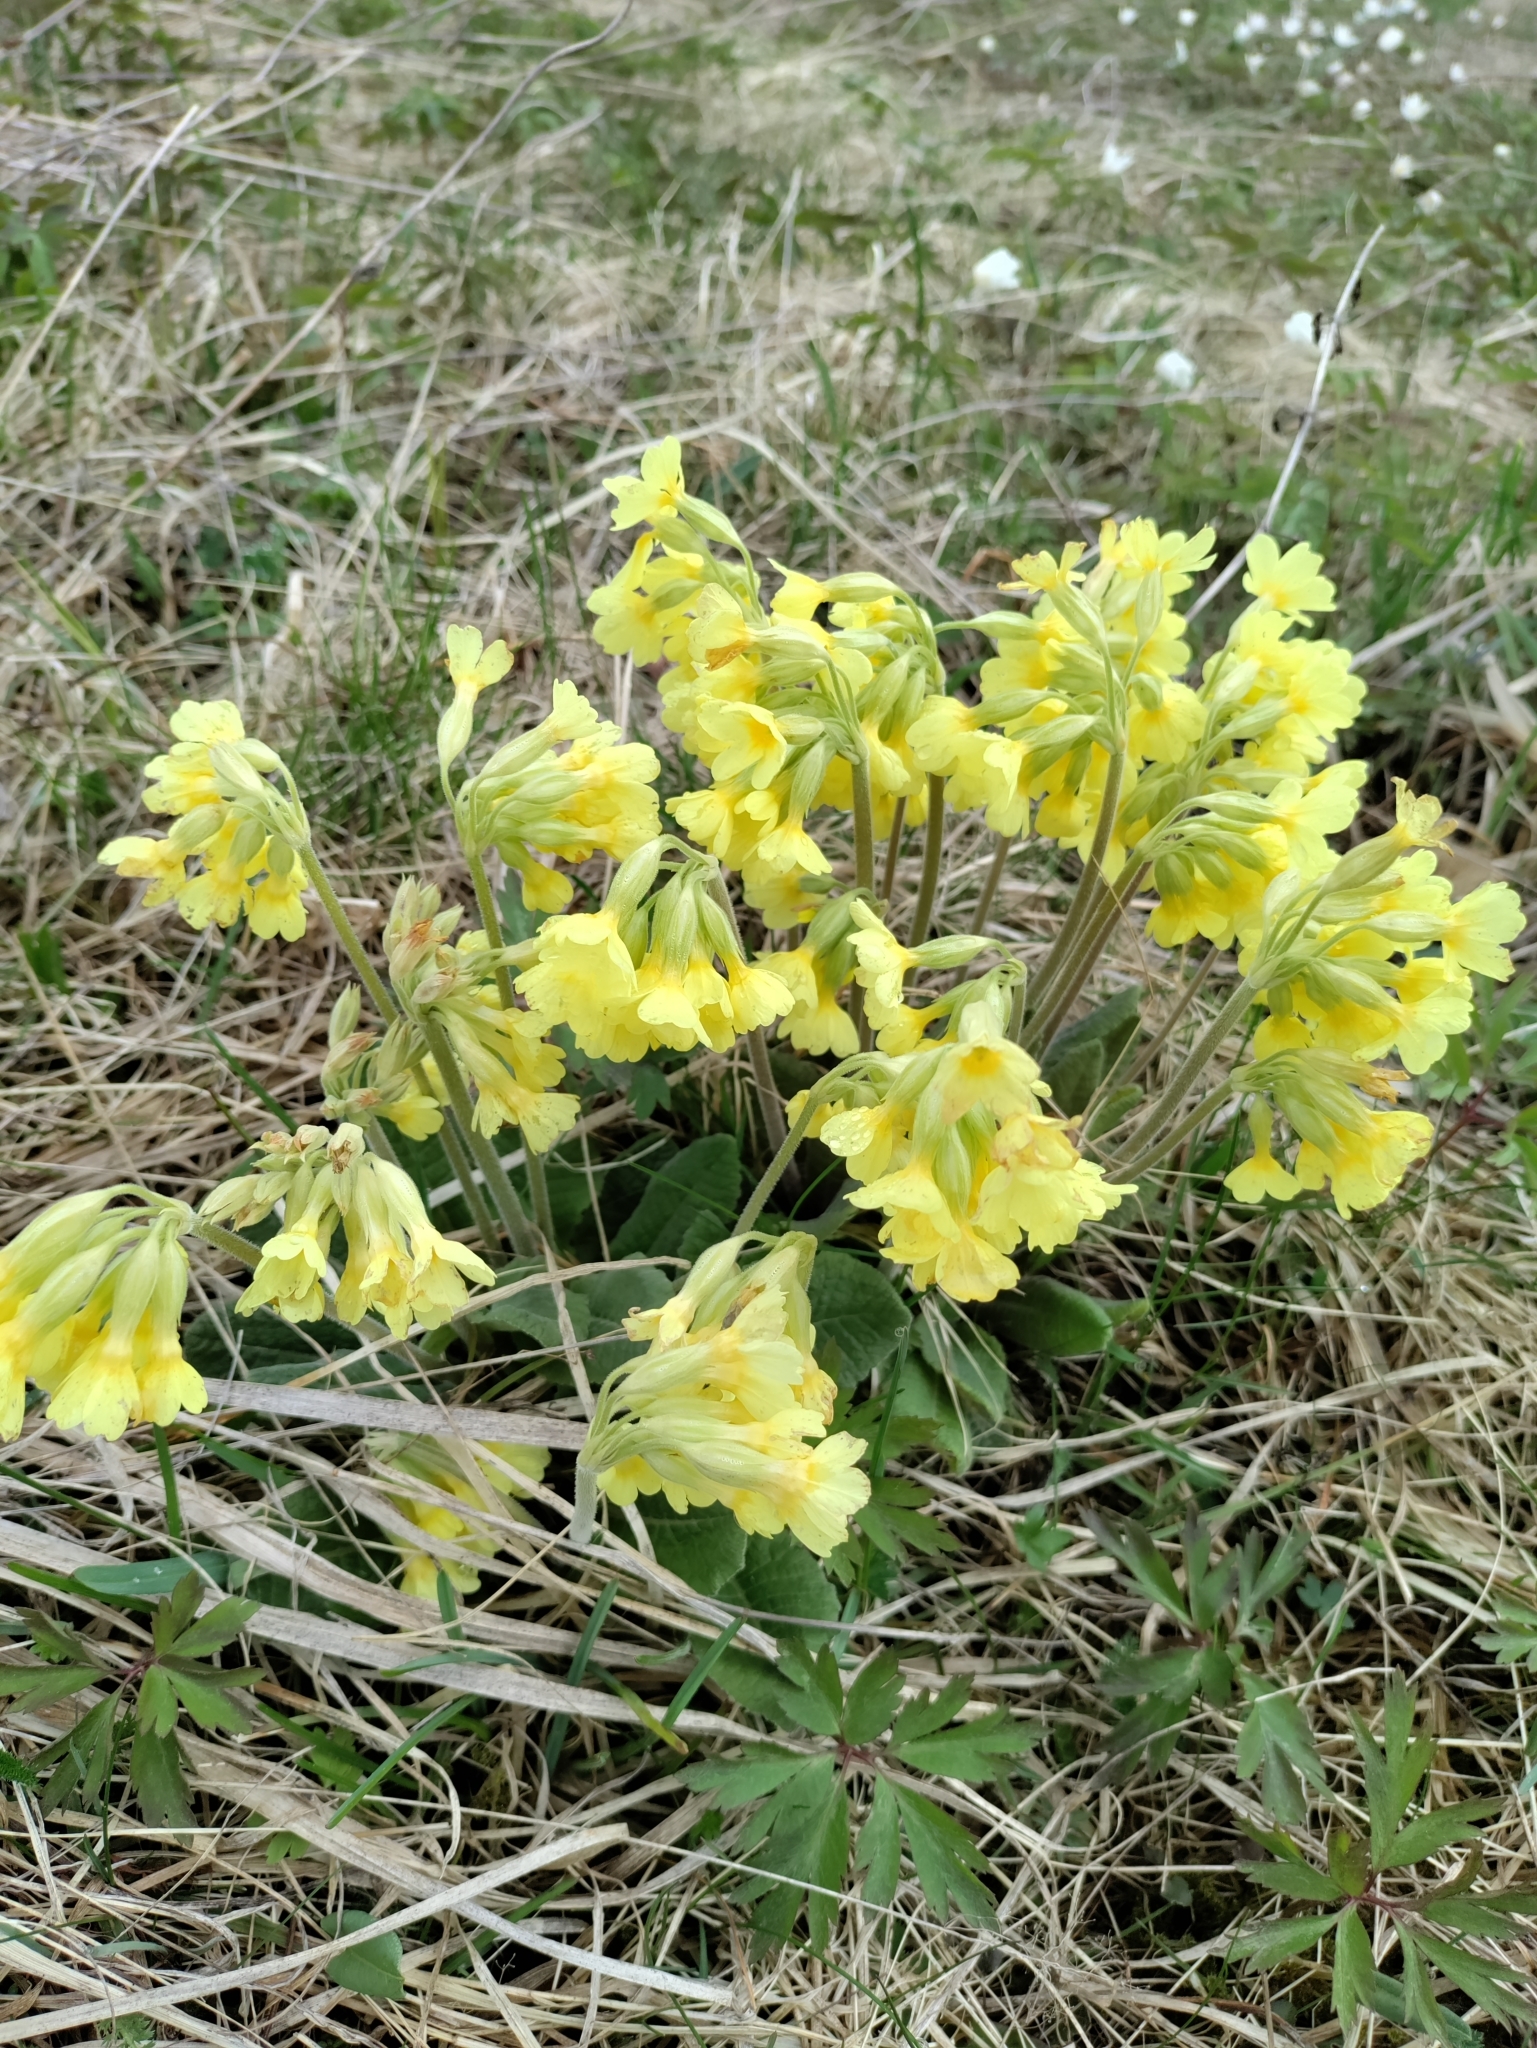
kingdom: Plantae
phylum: Tracheophyta
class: Magnoliopsida
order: Ericales
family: Primulaceae
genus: Primula
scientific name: Primula elatior
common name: Oxlip
